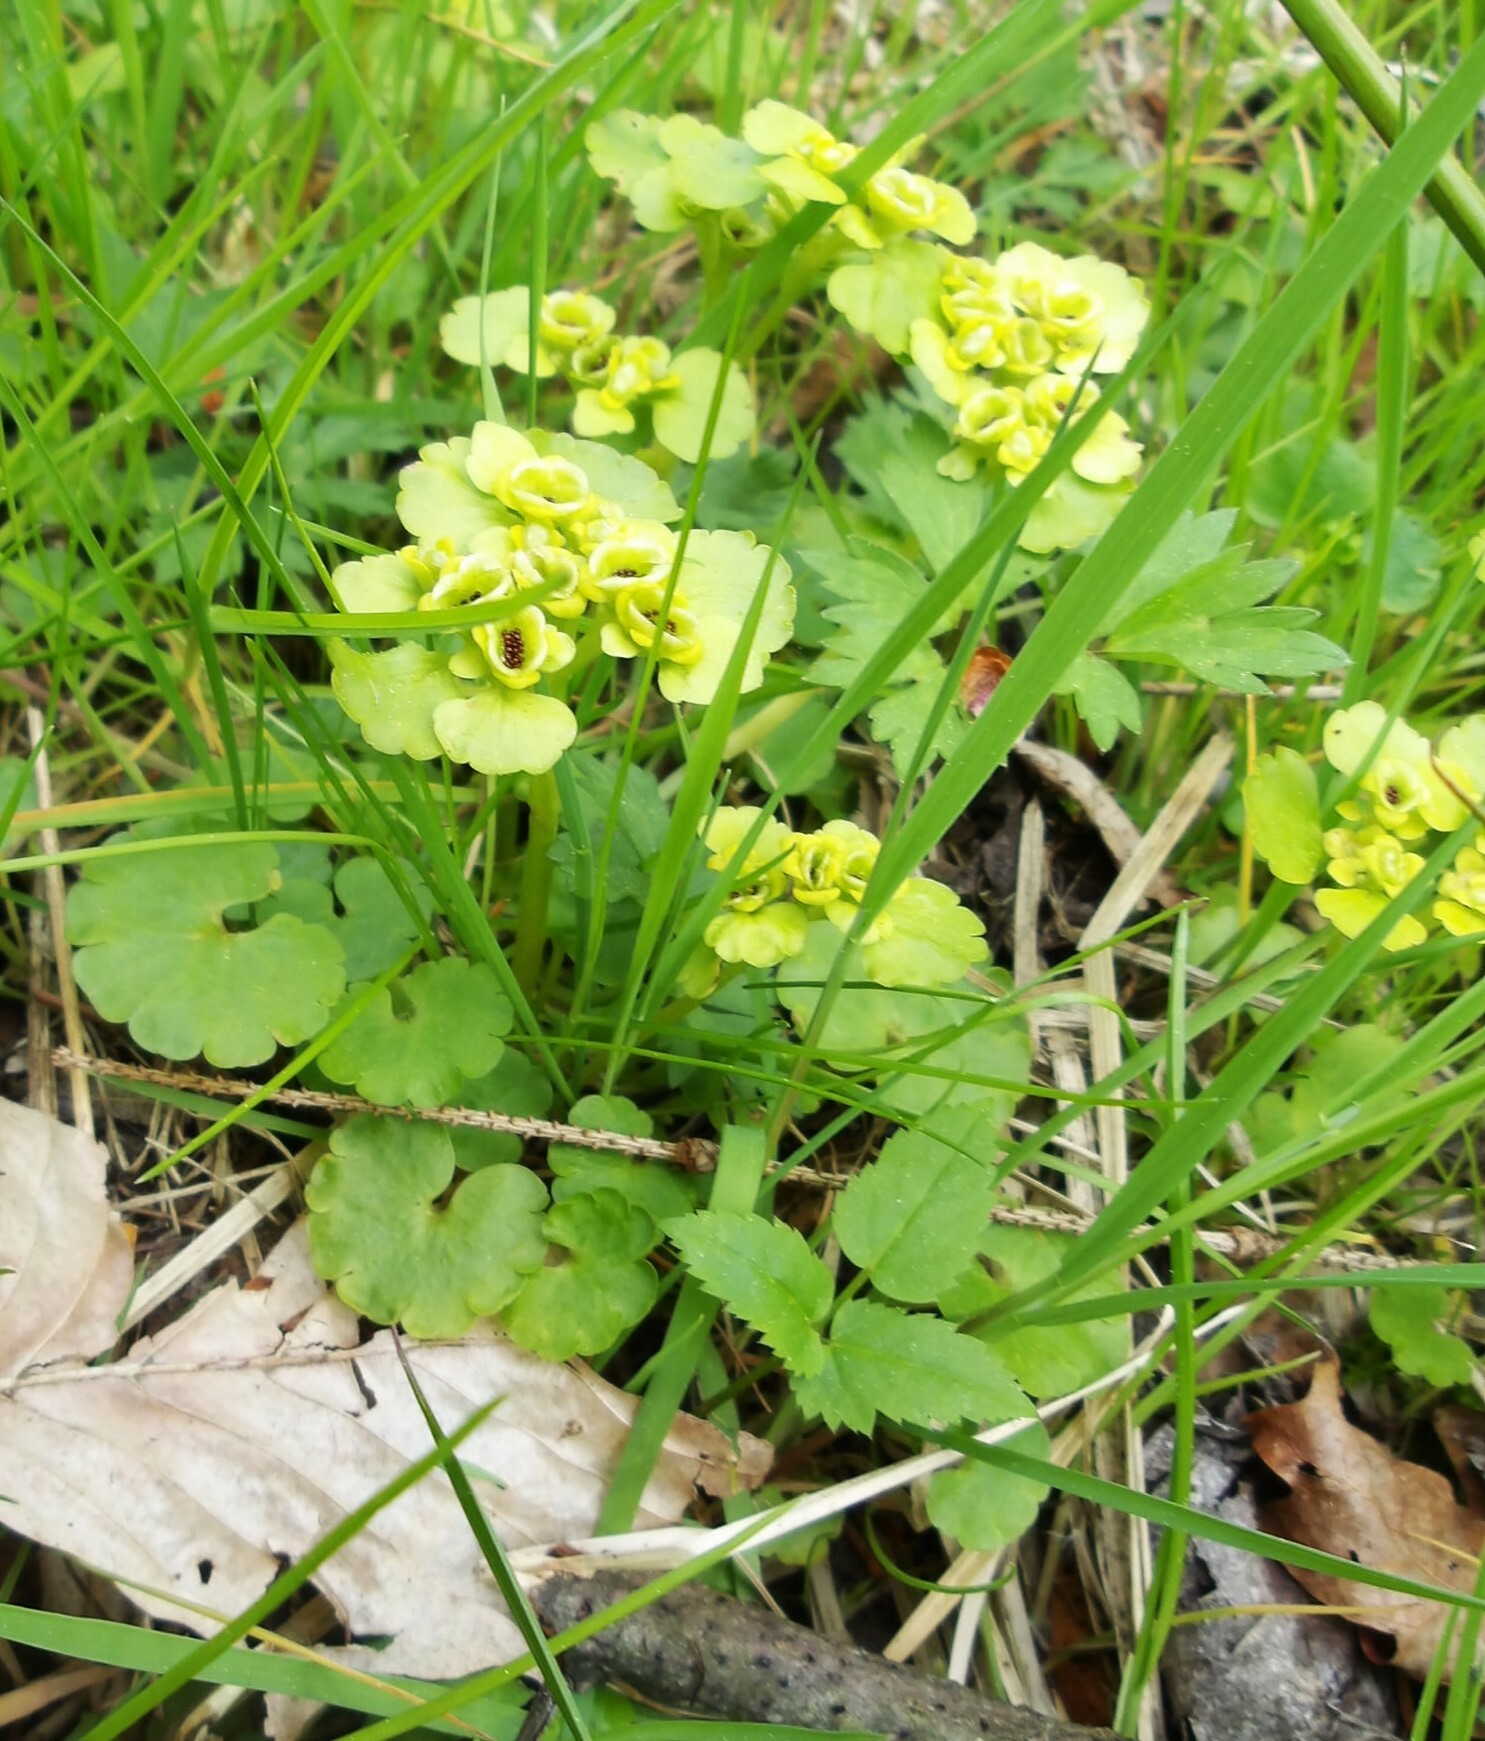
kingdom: Plantae
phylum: Tracheophyta
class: Magnoliopsida
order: Saxifragales
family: Saxifragaceae
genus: Chrysosplenium
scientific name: Chrysosplenium alternifolium
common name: Alternate-leaved golden-saxifrage
